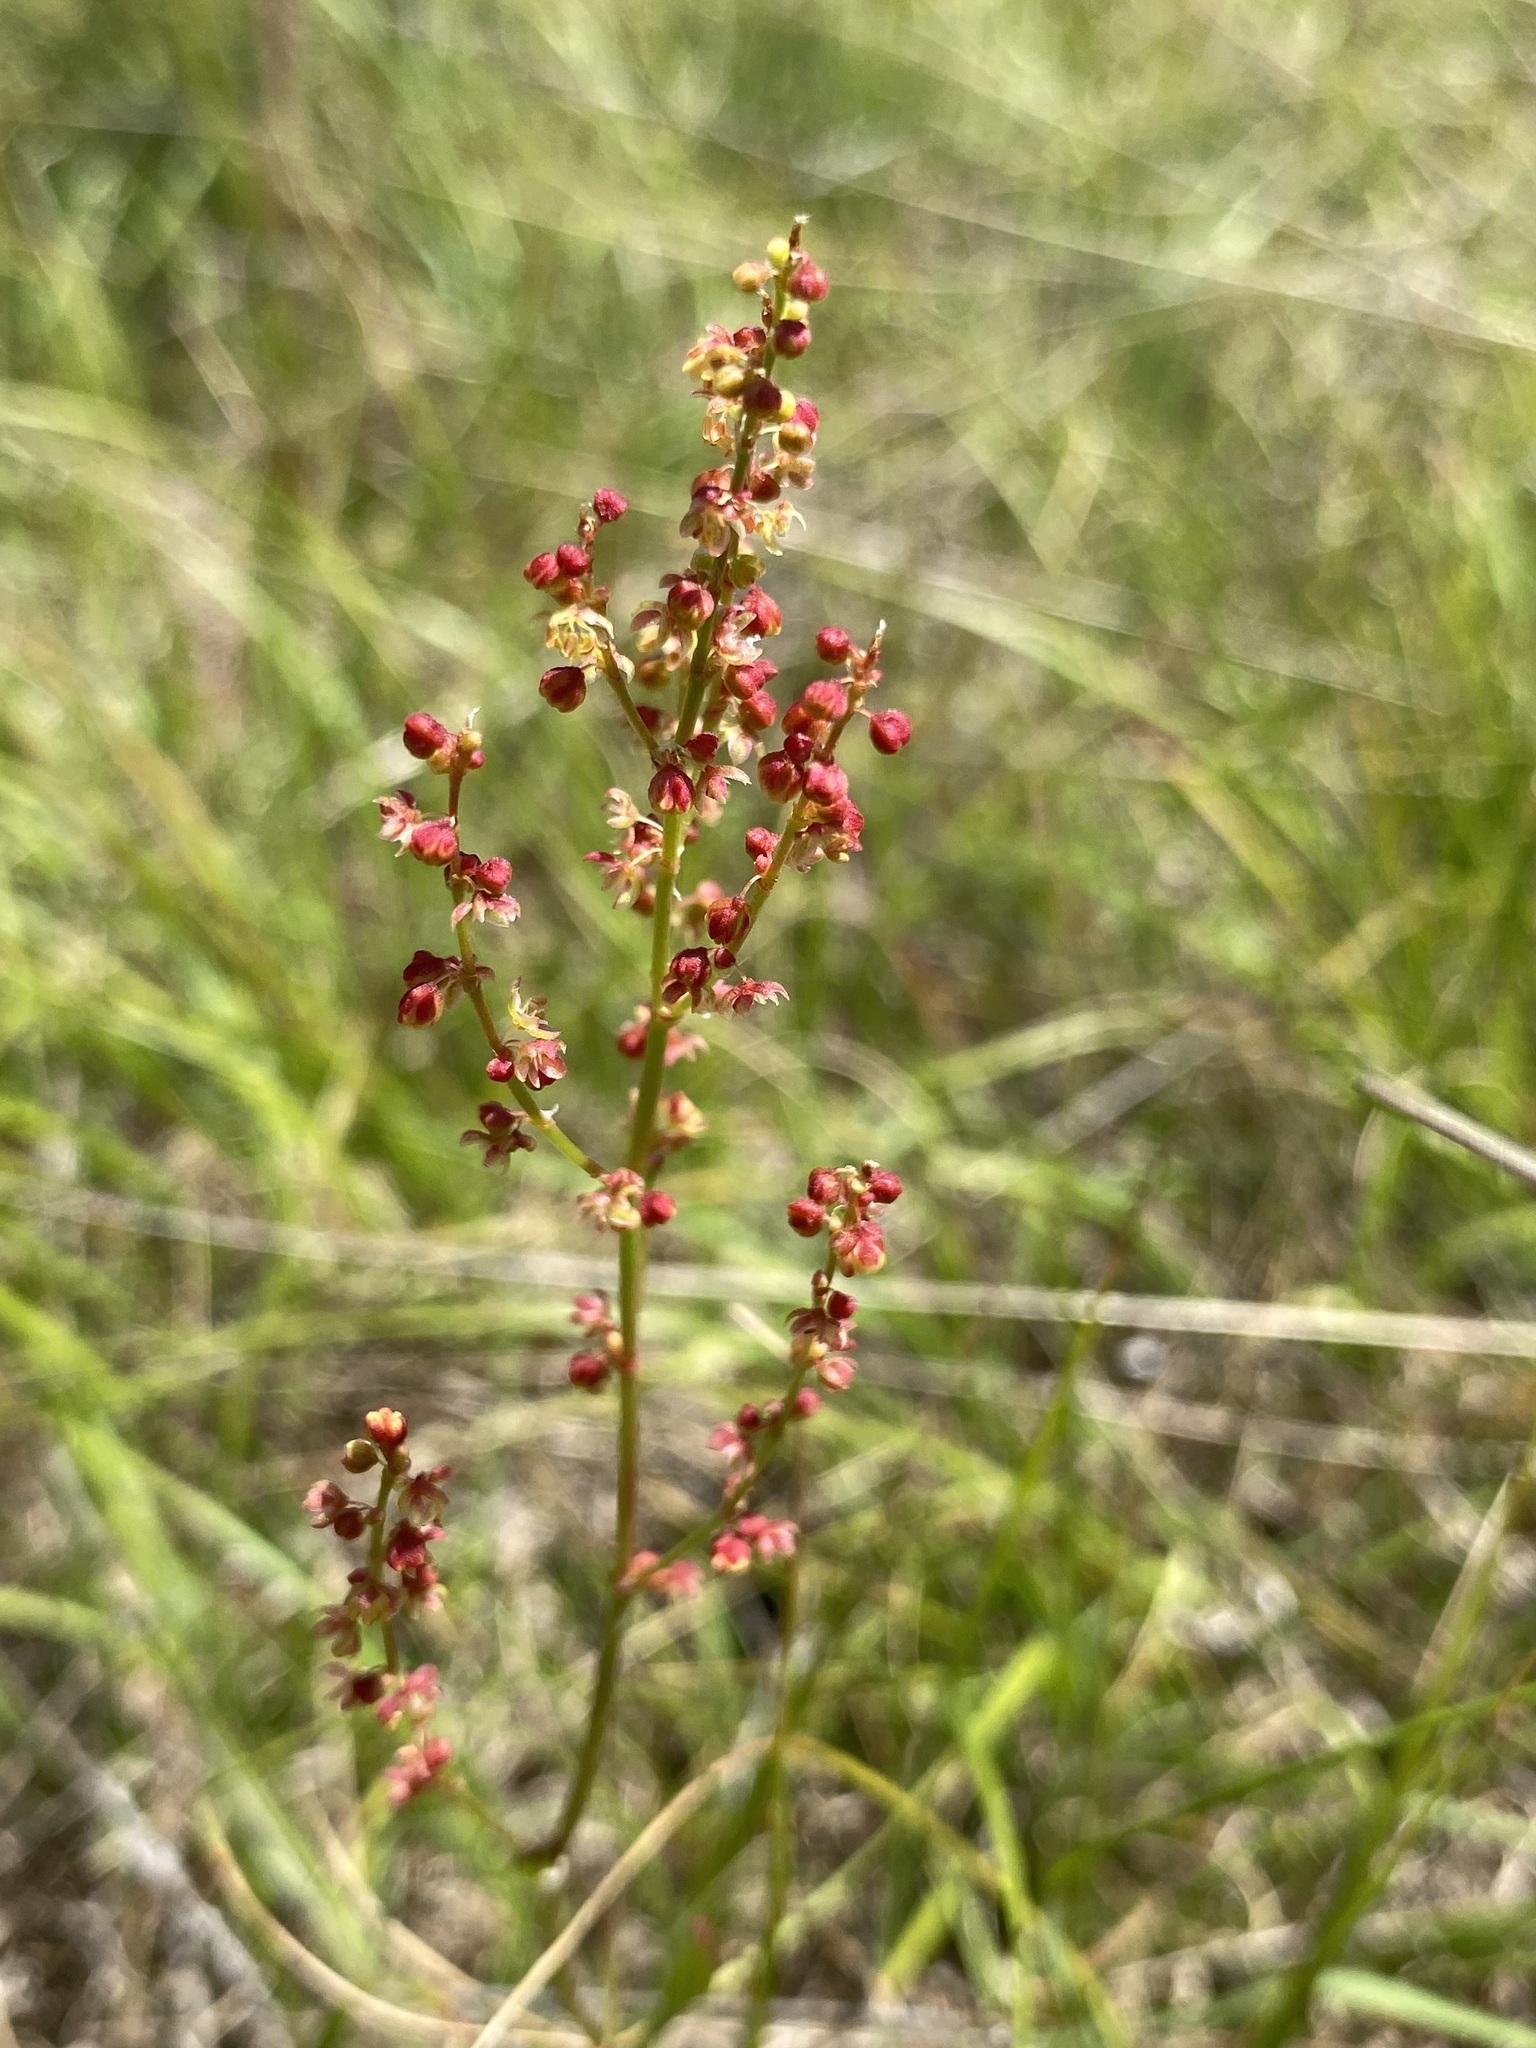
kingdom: Plantae
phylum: Tracheophyta
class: Magnoliopsida
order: Caryophyllales
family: Polygonaceae
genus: Rumex
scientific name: Rumex acetosella
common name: Common sheep sorrel
